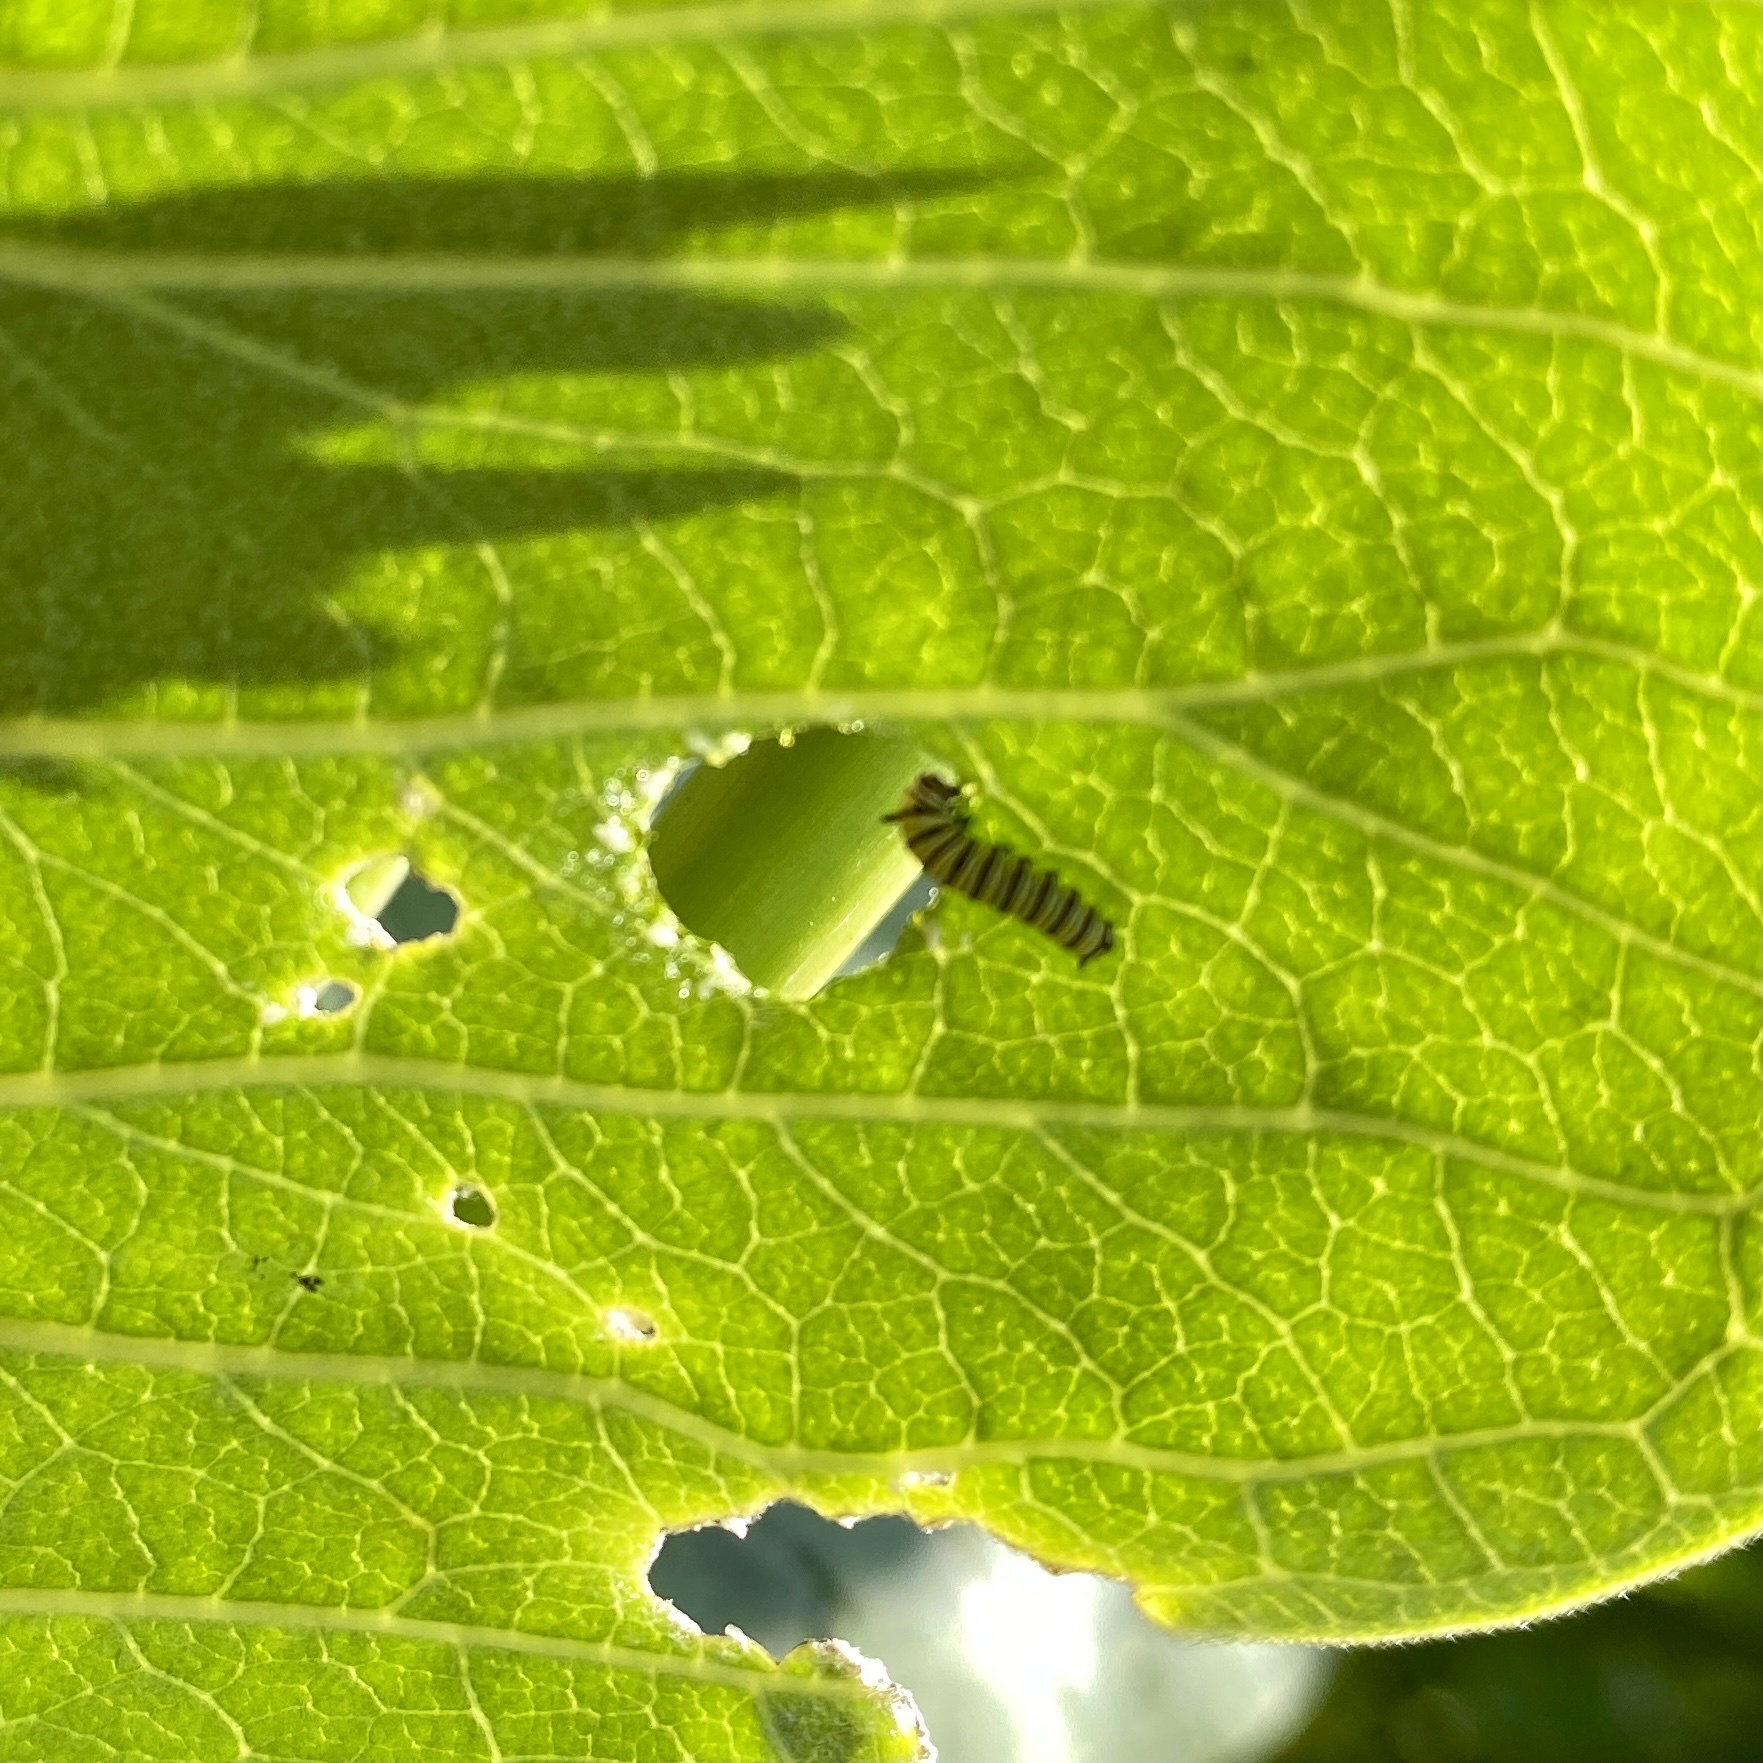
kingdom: Animalia
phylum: Arthropoda
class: Insecta
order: Lepidoptera
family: Nymphalidae
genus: Danaus
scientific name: Danaus plexippus
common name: Monarch
